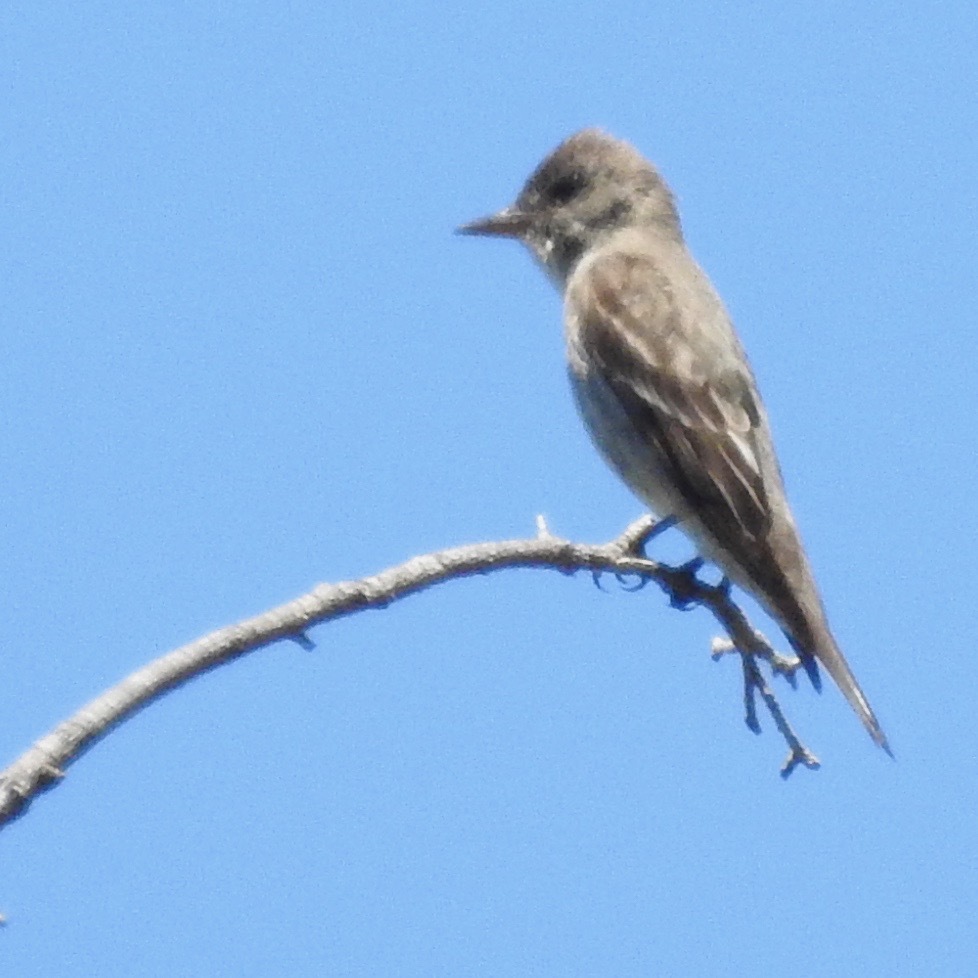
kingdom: Animalia
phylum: Chordata
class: Aves
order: Passeriformes
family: Tyrannidae
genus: Contopus
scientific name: Contopus cooperi
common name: Olive-sided flycatcher
